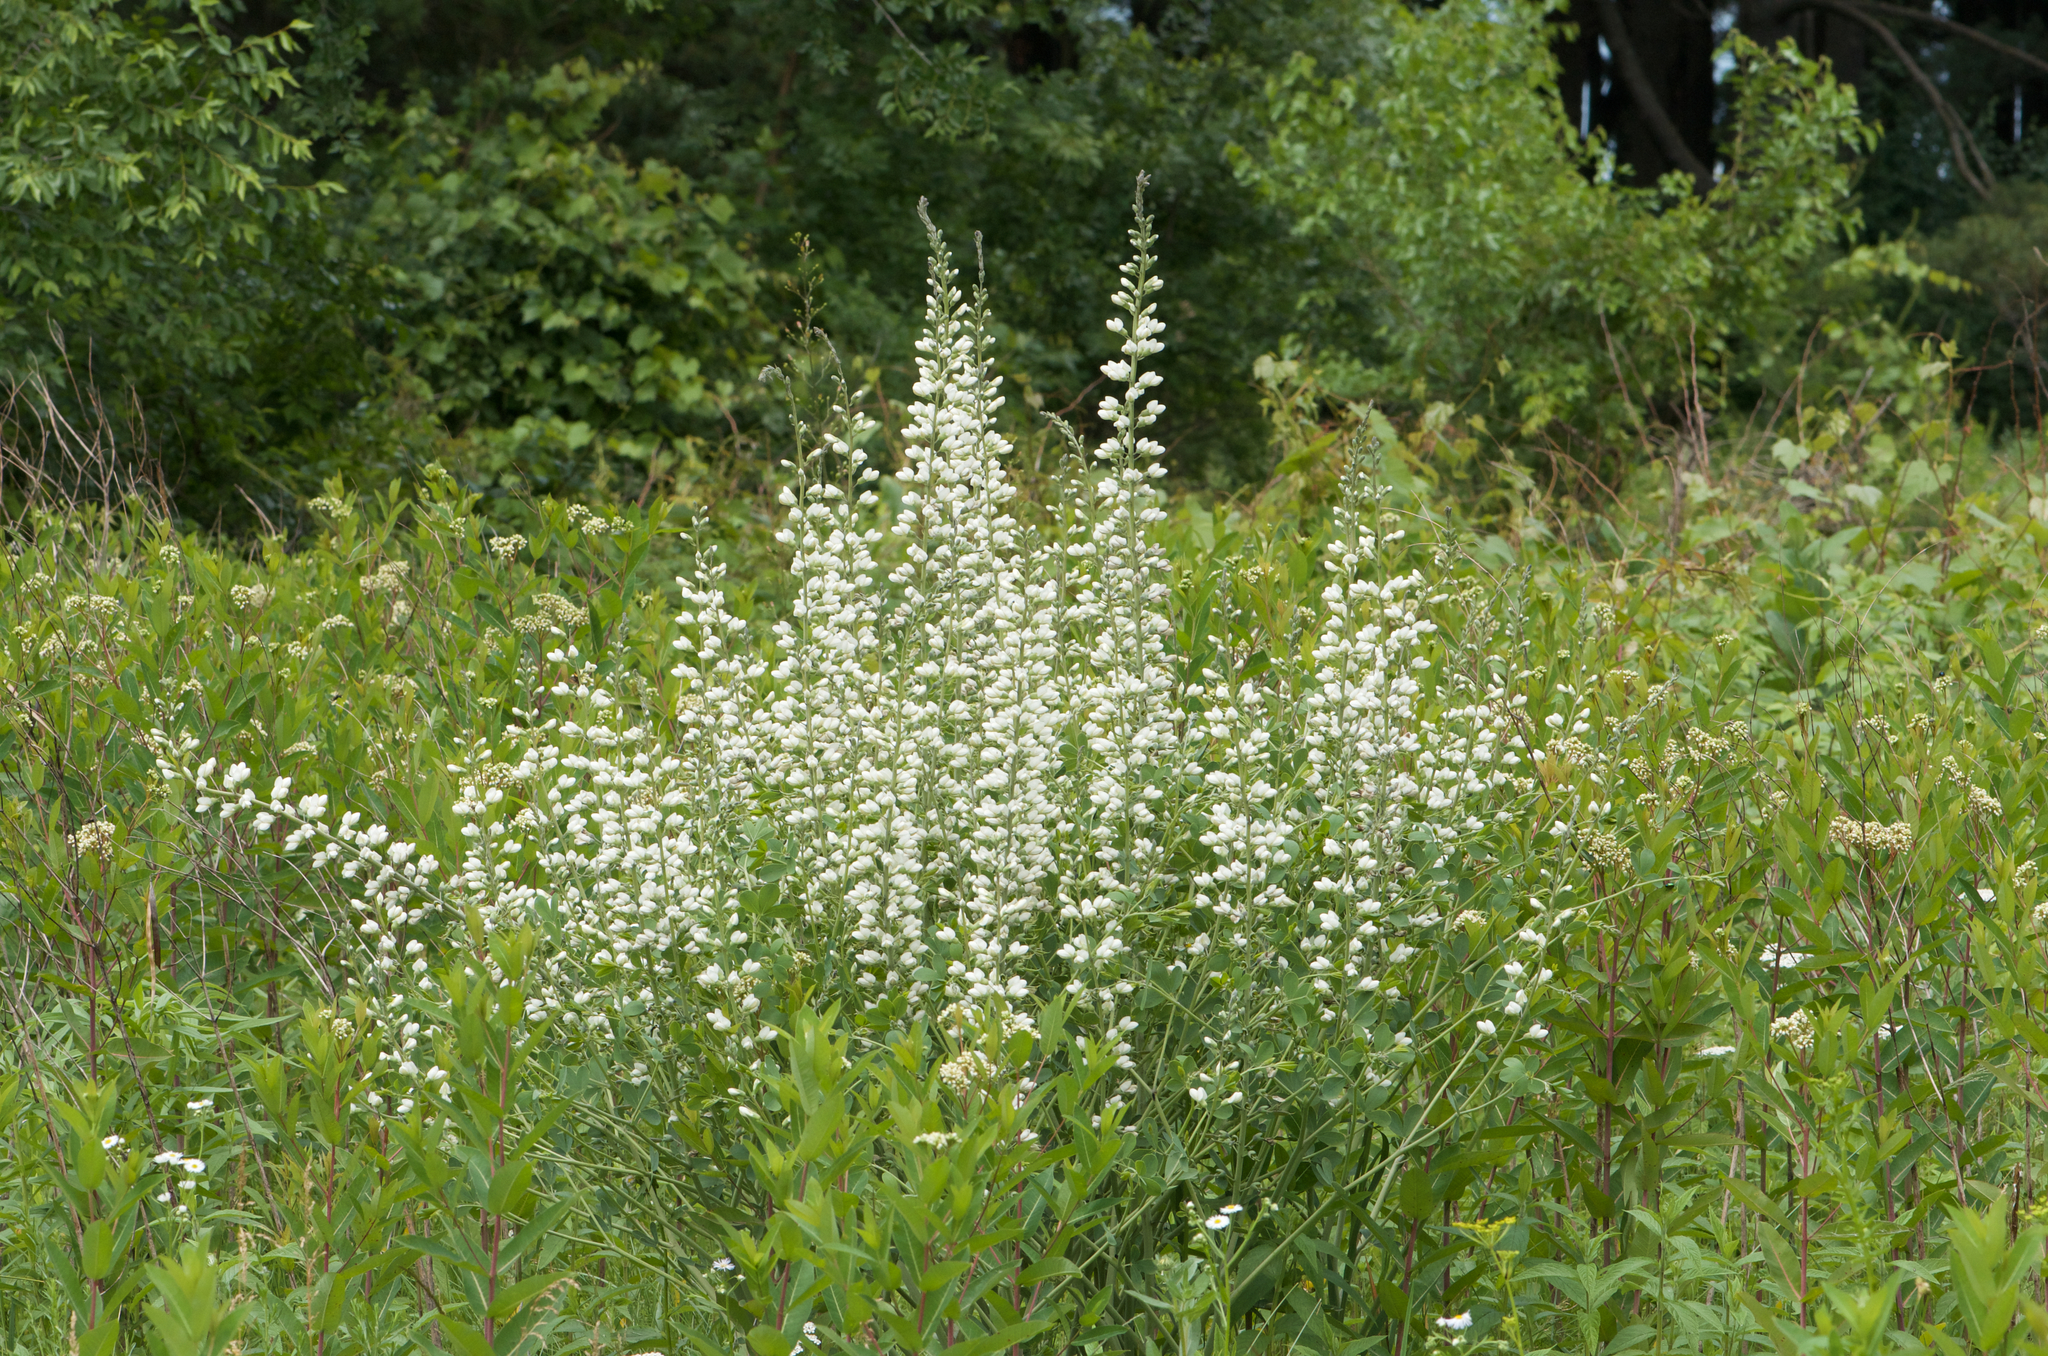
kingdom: Plantae
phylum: Tracheophyta
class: Magnoliopsida
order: Fabales
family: Fabaceae
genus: Baptisia
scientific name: Baptisia alba
